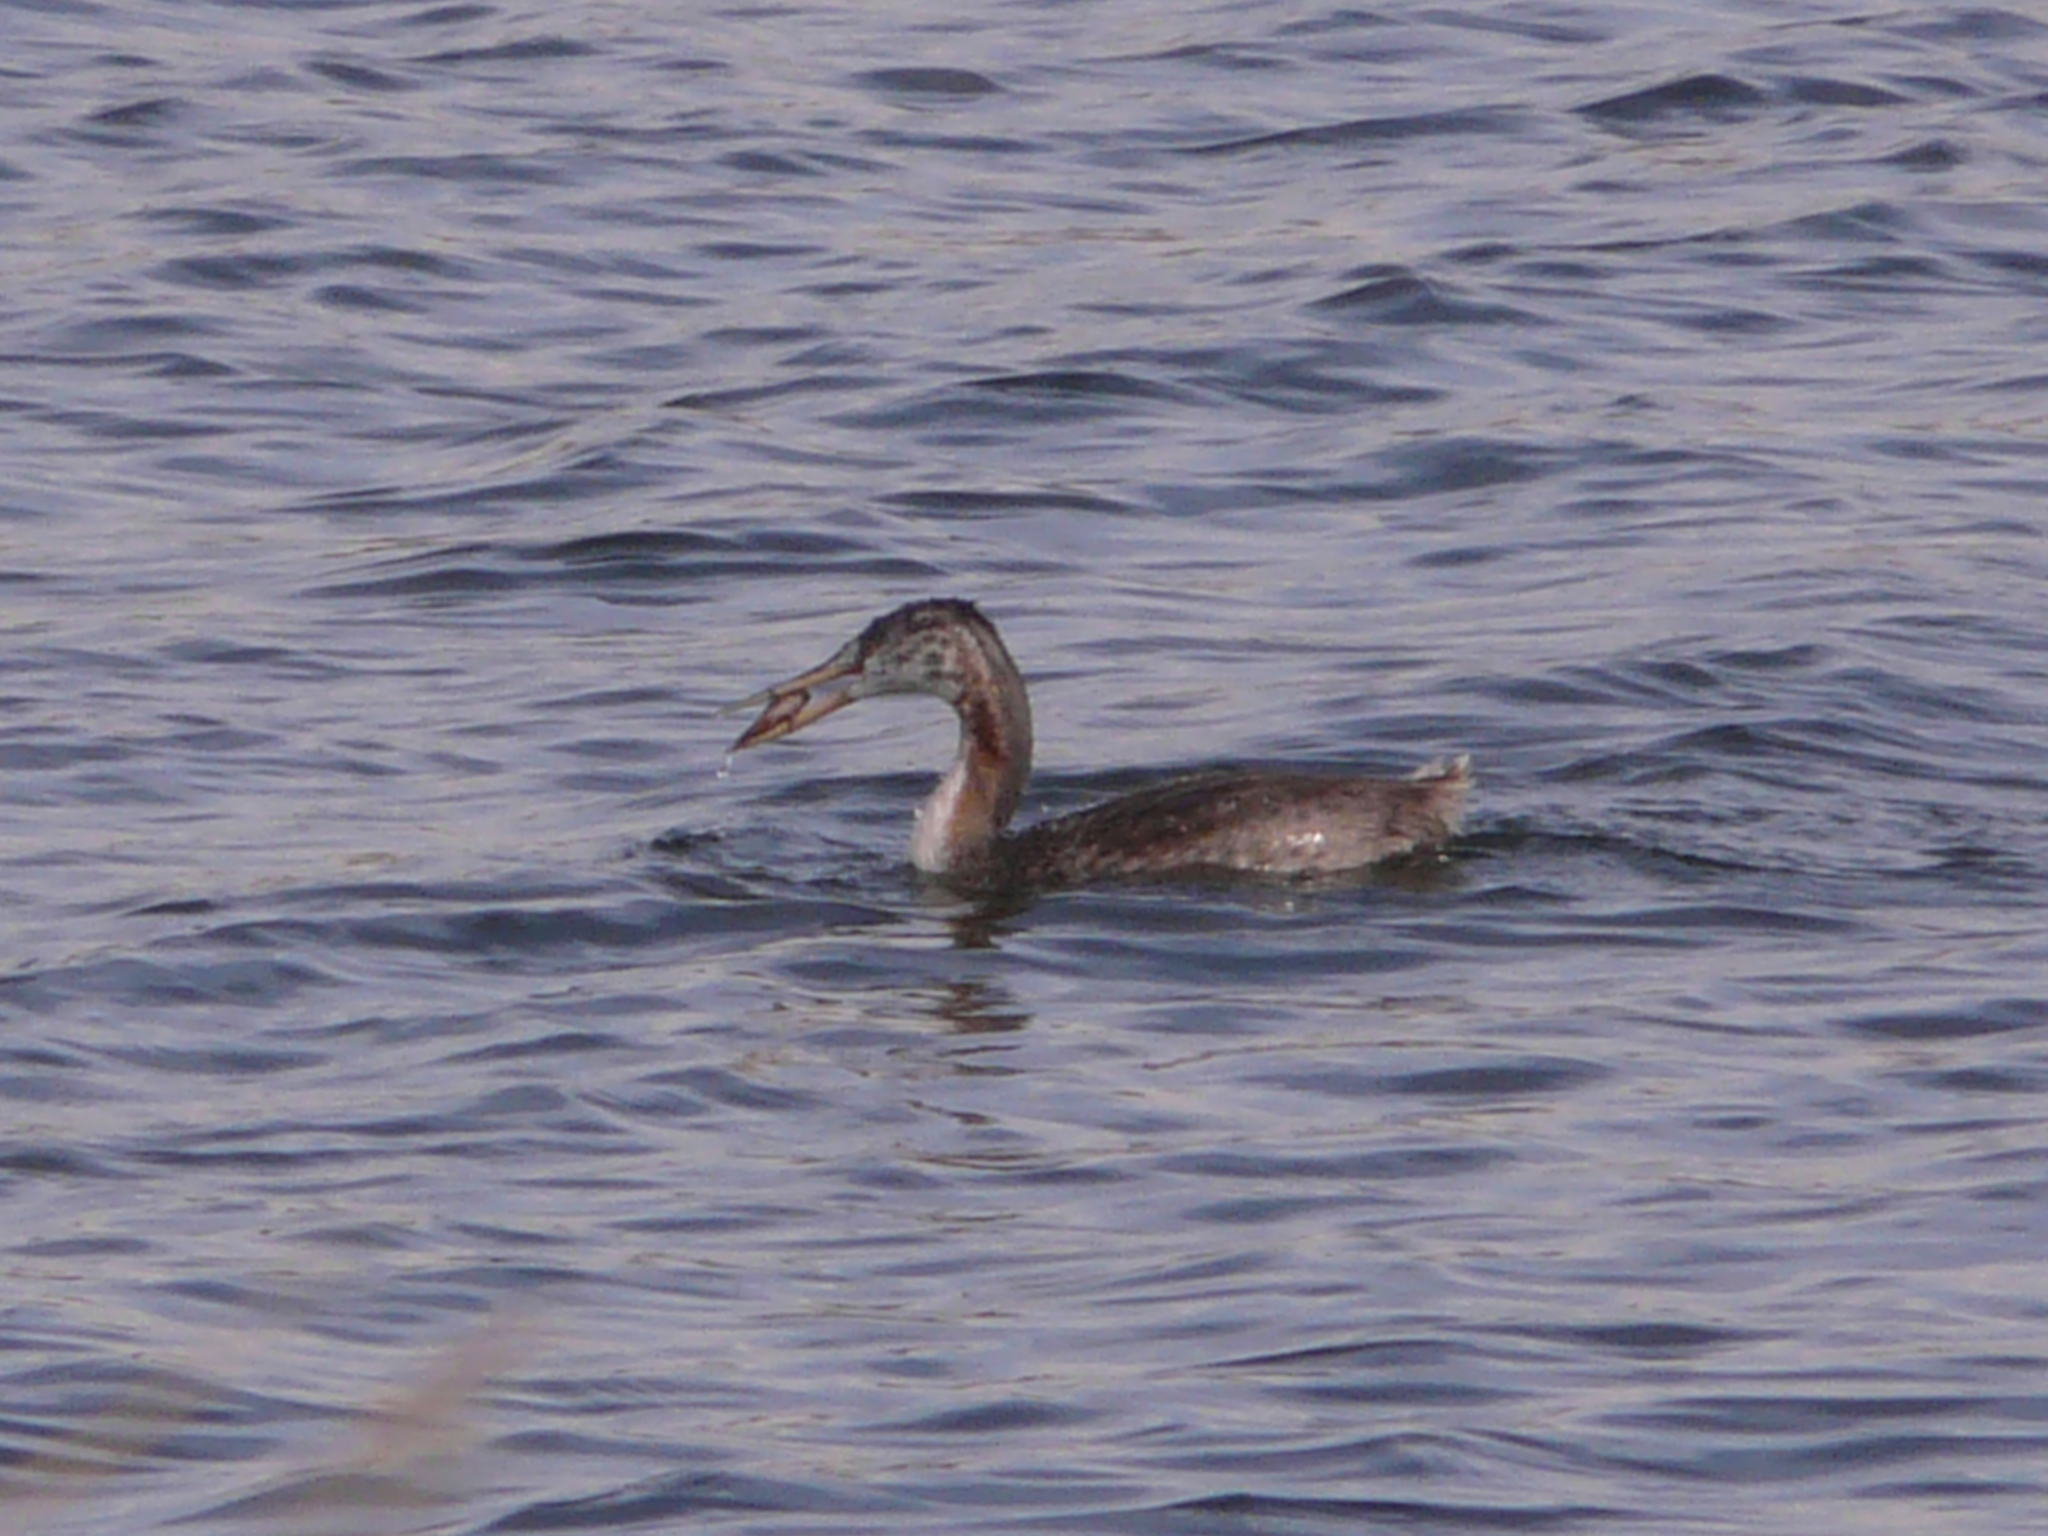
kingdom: Animalia
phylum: Chordata
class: Aves
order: Podicipediformes
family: Podicipedidae
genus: Podiceps
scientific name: Podiceps major
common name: Great grebe
